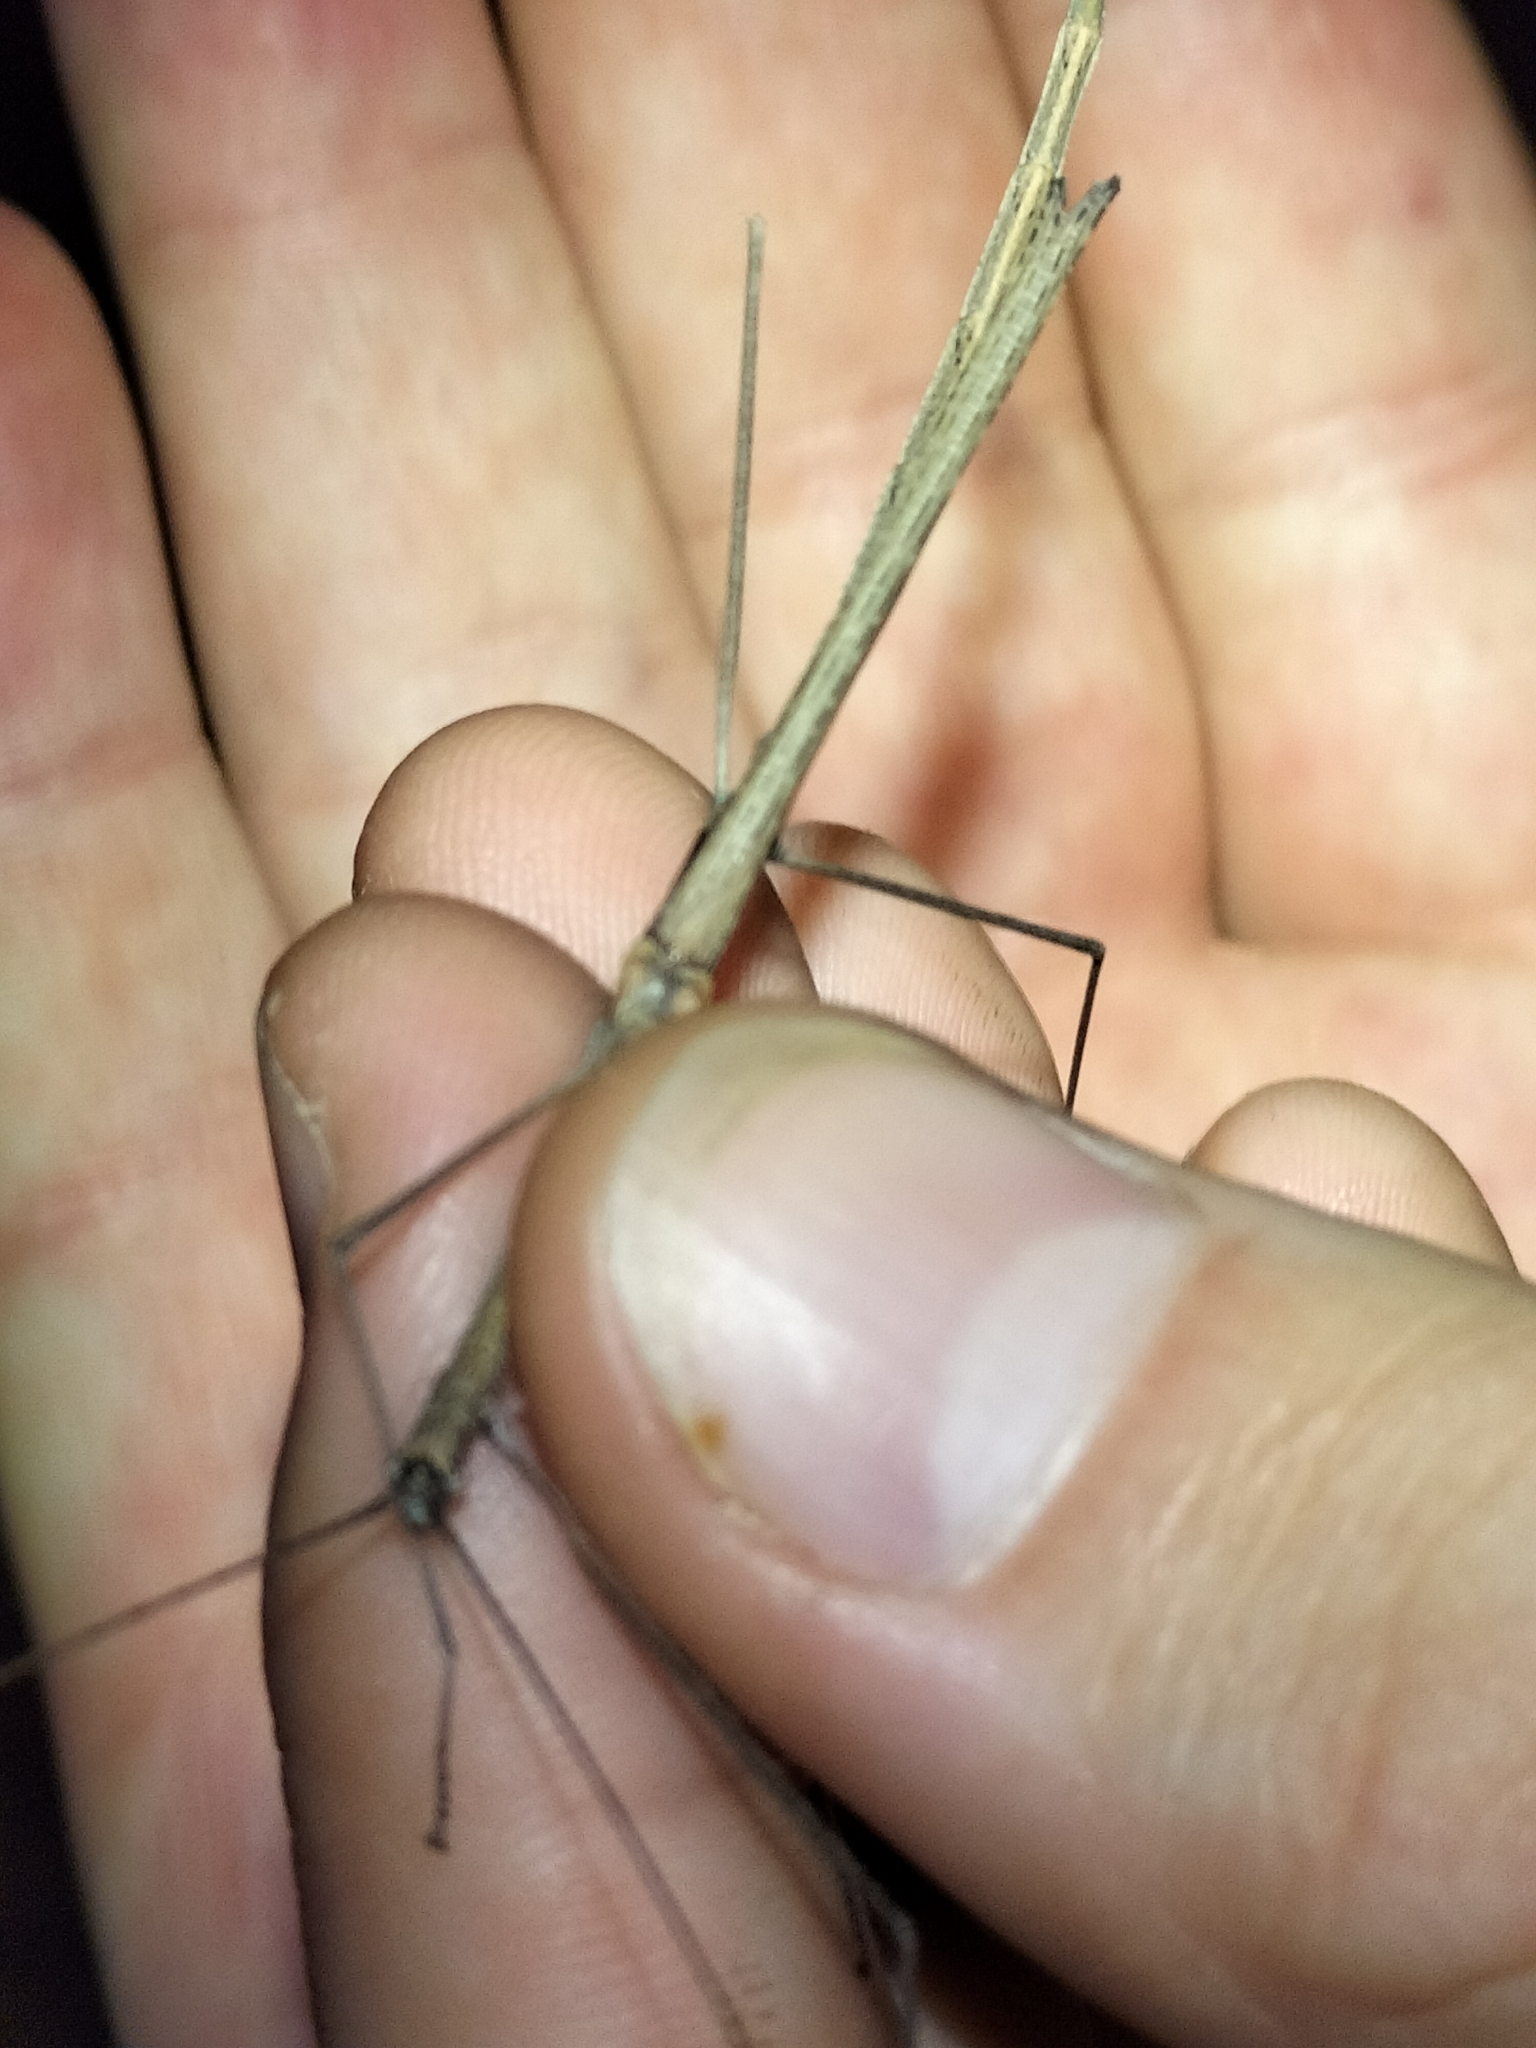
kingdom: Animalia
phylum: Arthropoda
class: Insecta
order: Phasmida
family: Lonchodidae
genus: Scionecra
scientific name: Scionecra milledgei
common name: Milledge's stick-insect
